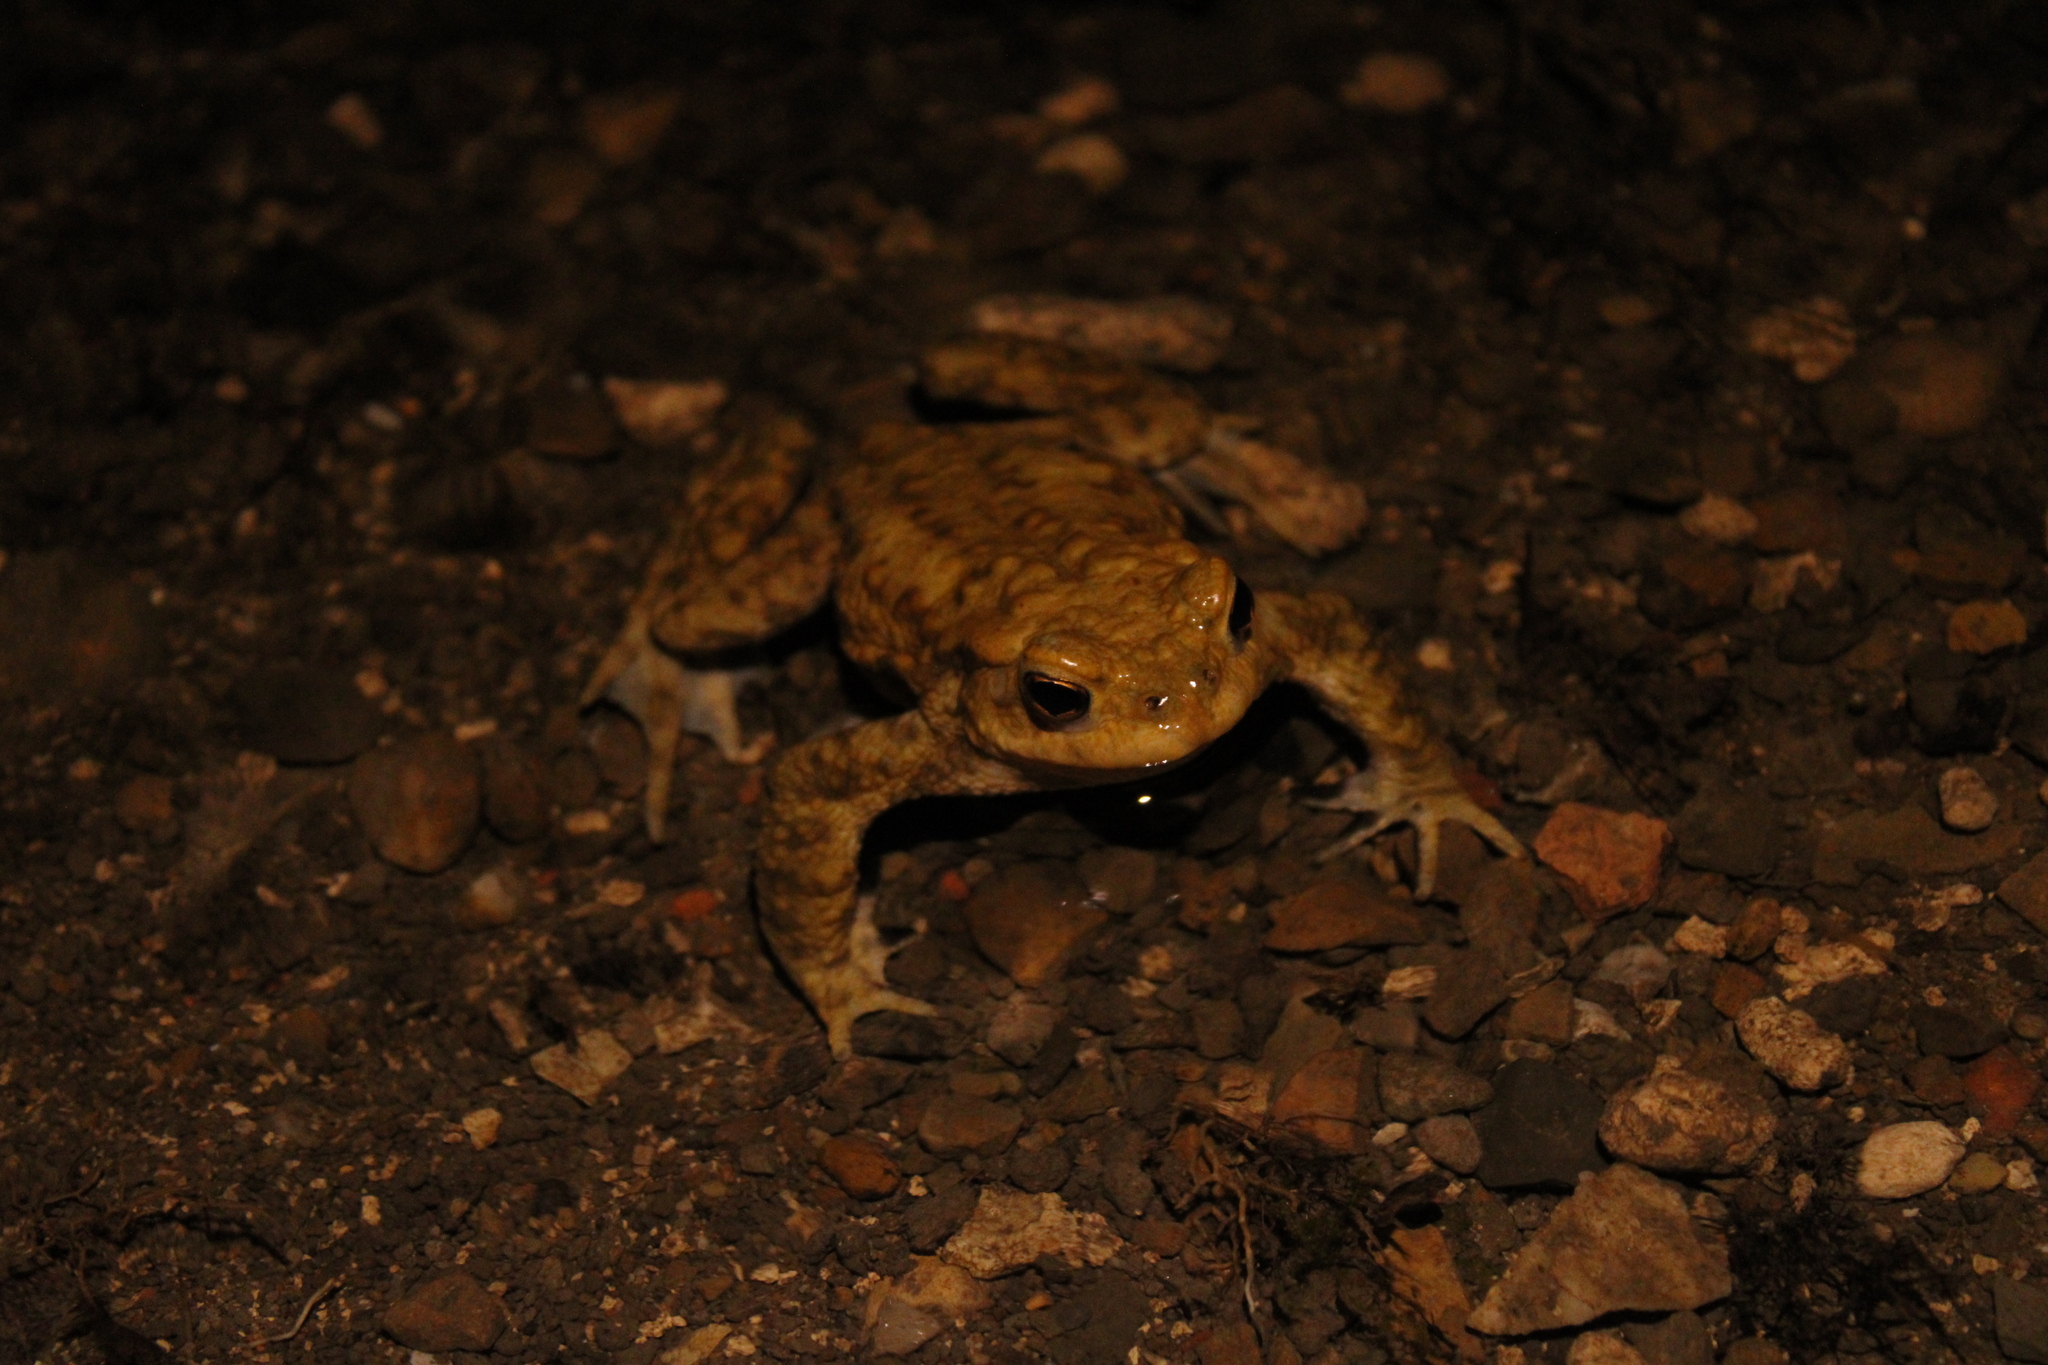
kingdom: Animalia
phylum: Chordata
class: Amphibia
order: Anura
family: Bufonidae
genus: Bufo
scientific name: Bufo bufo
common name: Common toad
